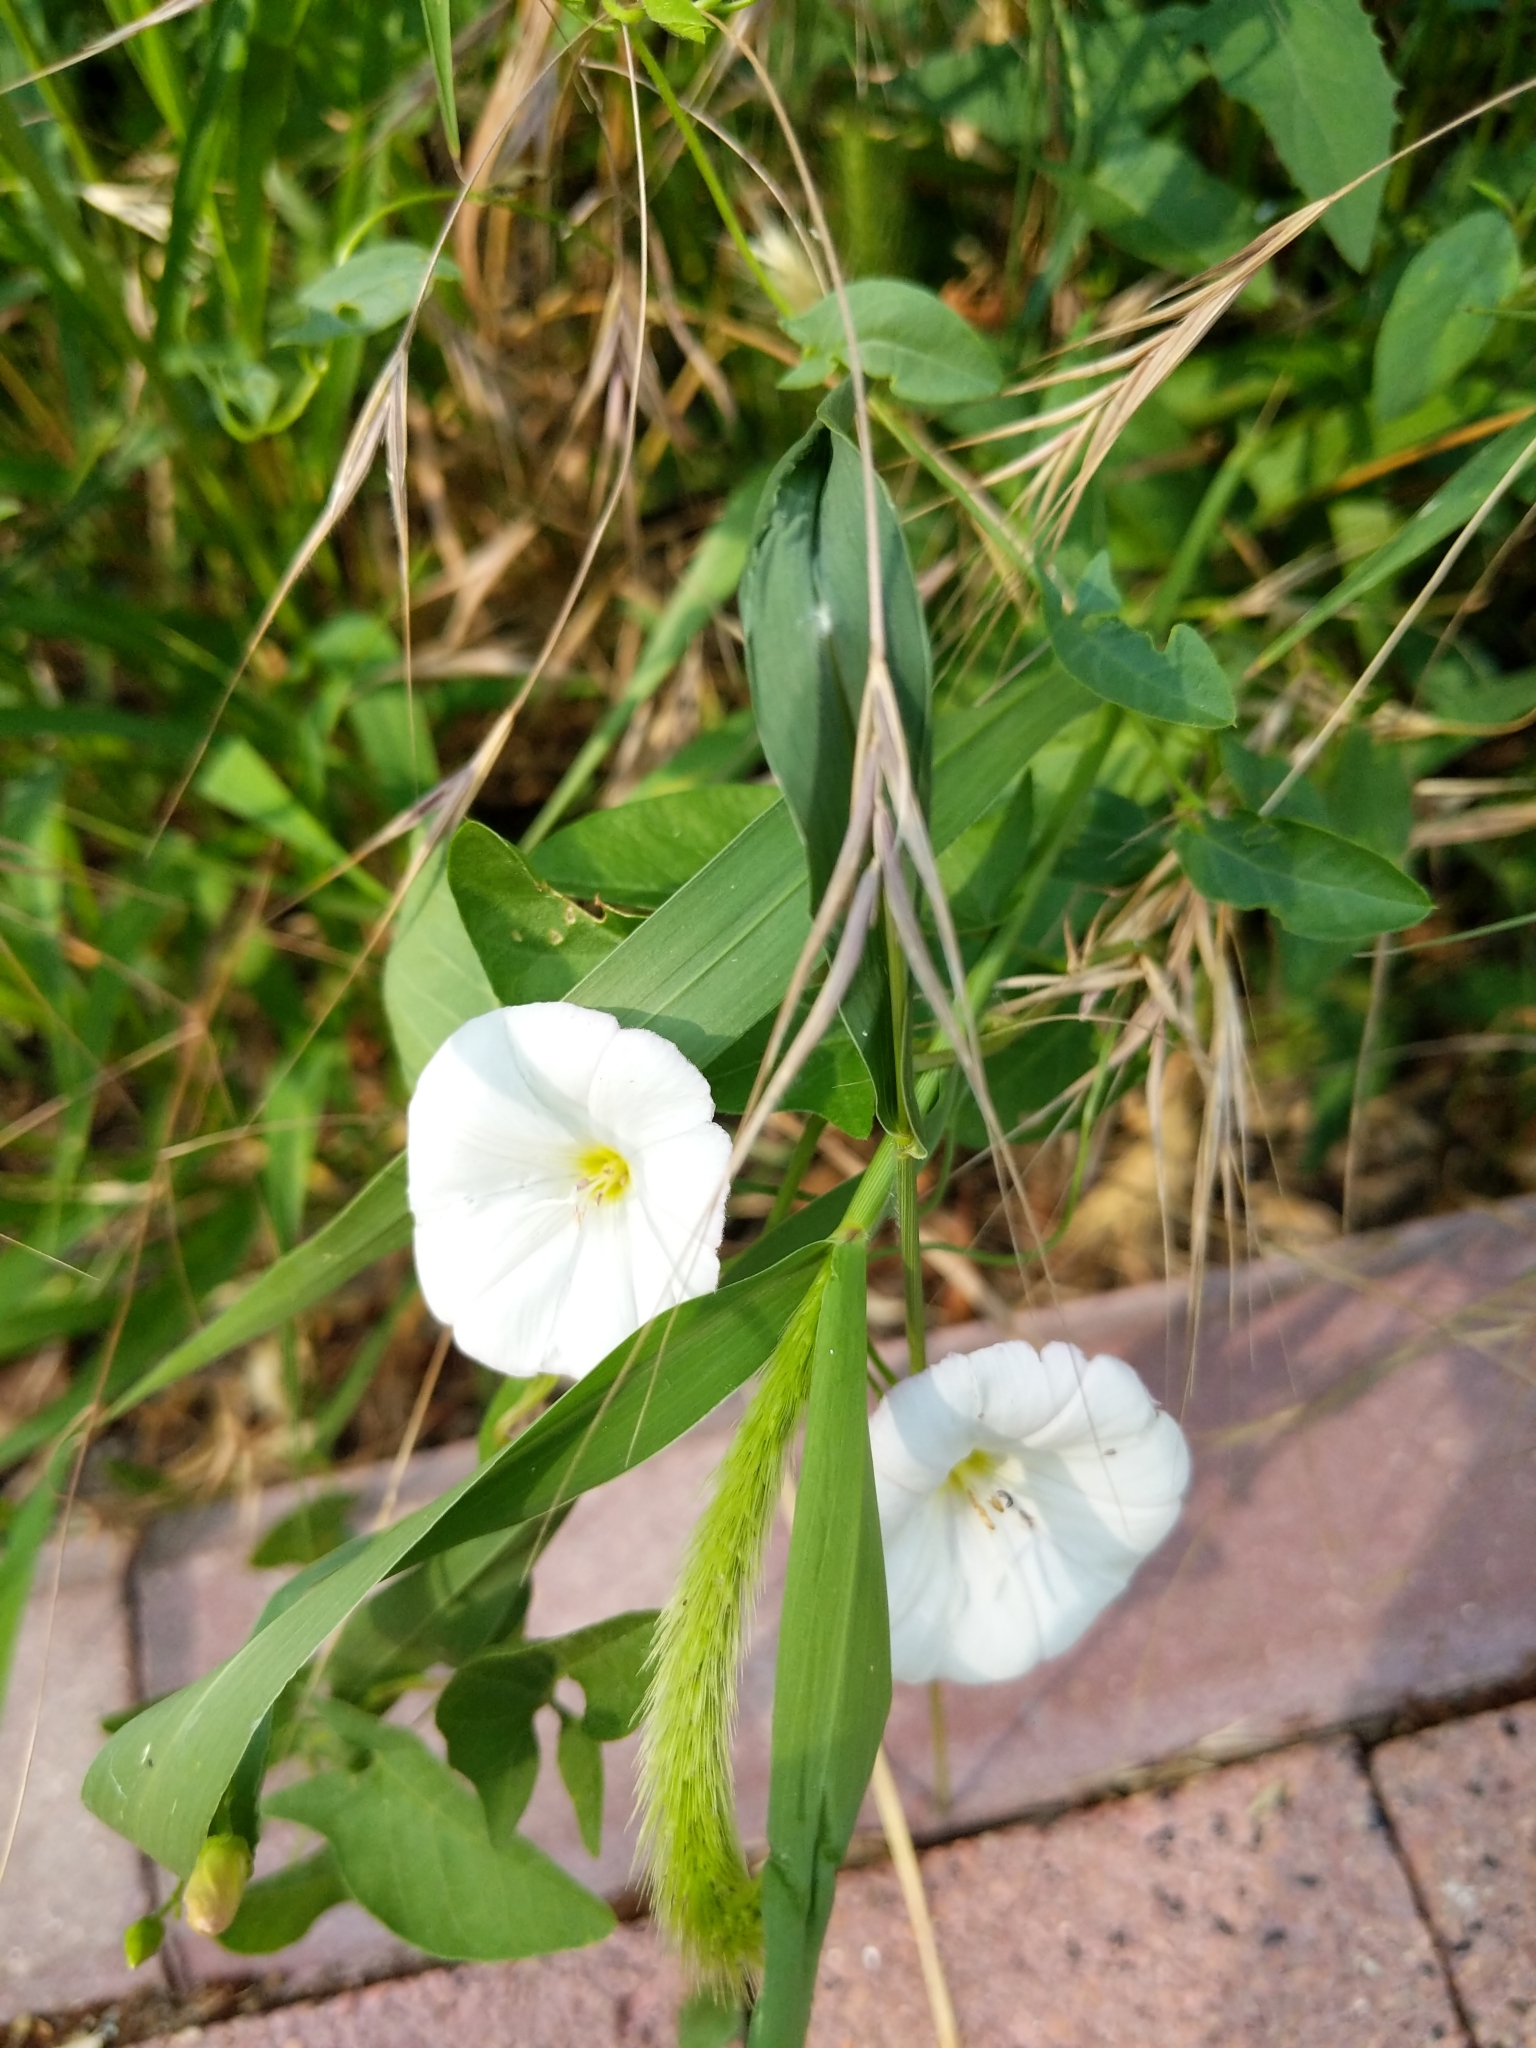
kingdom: Plantae
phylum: Tracheophyta
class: Magnoliopsida
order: Solanales
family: Convolvulaceae
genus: Convolvulus
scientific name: Convolvulus arvensis
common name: Field bindweed
